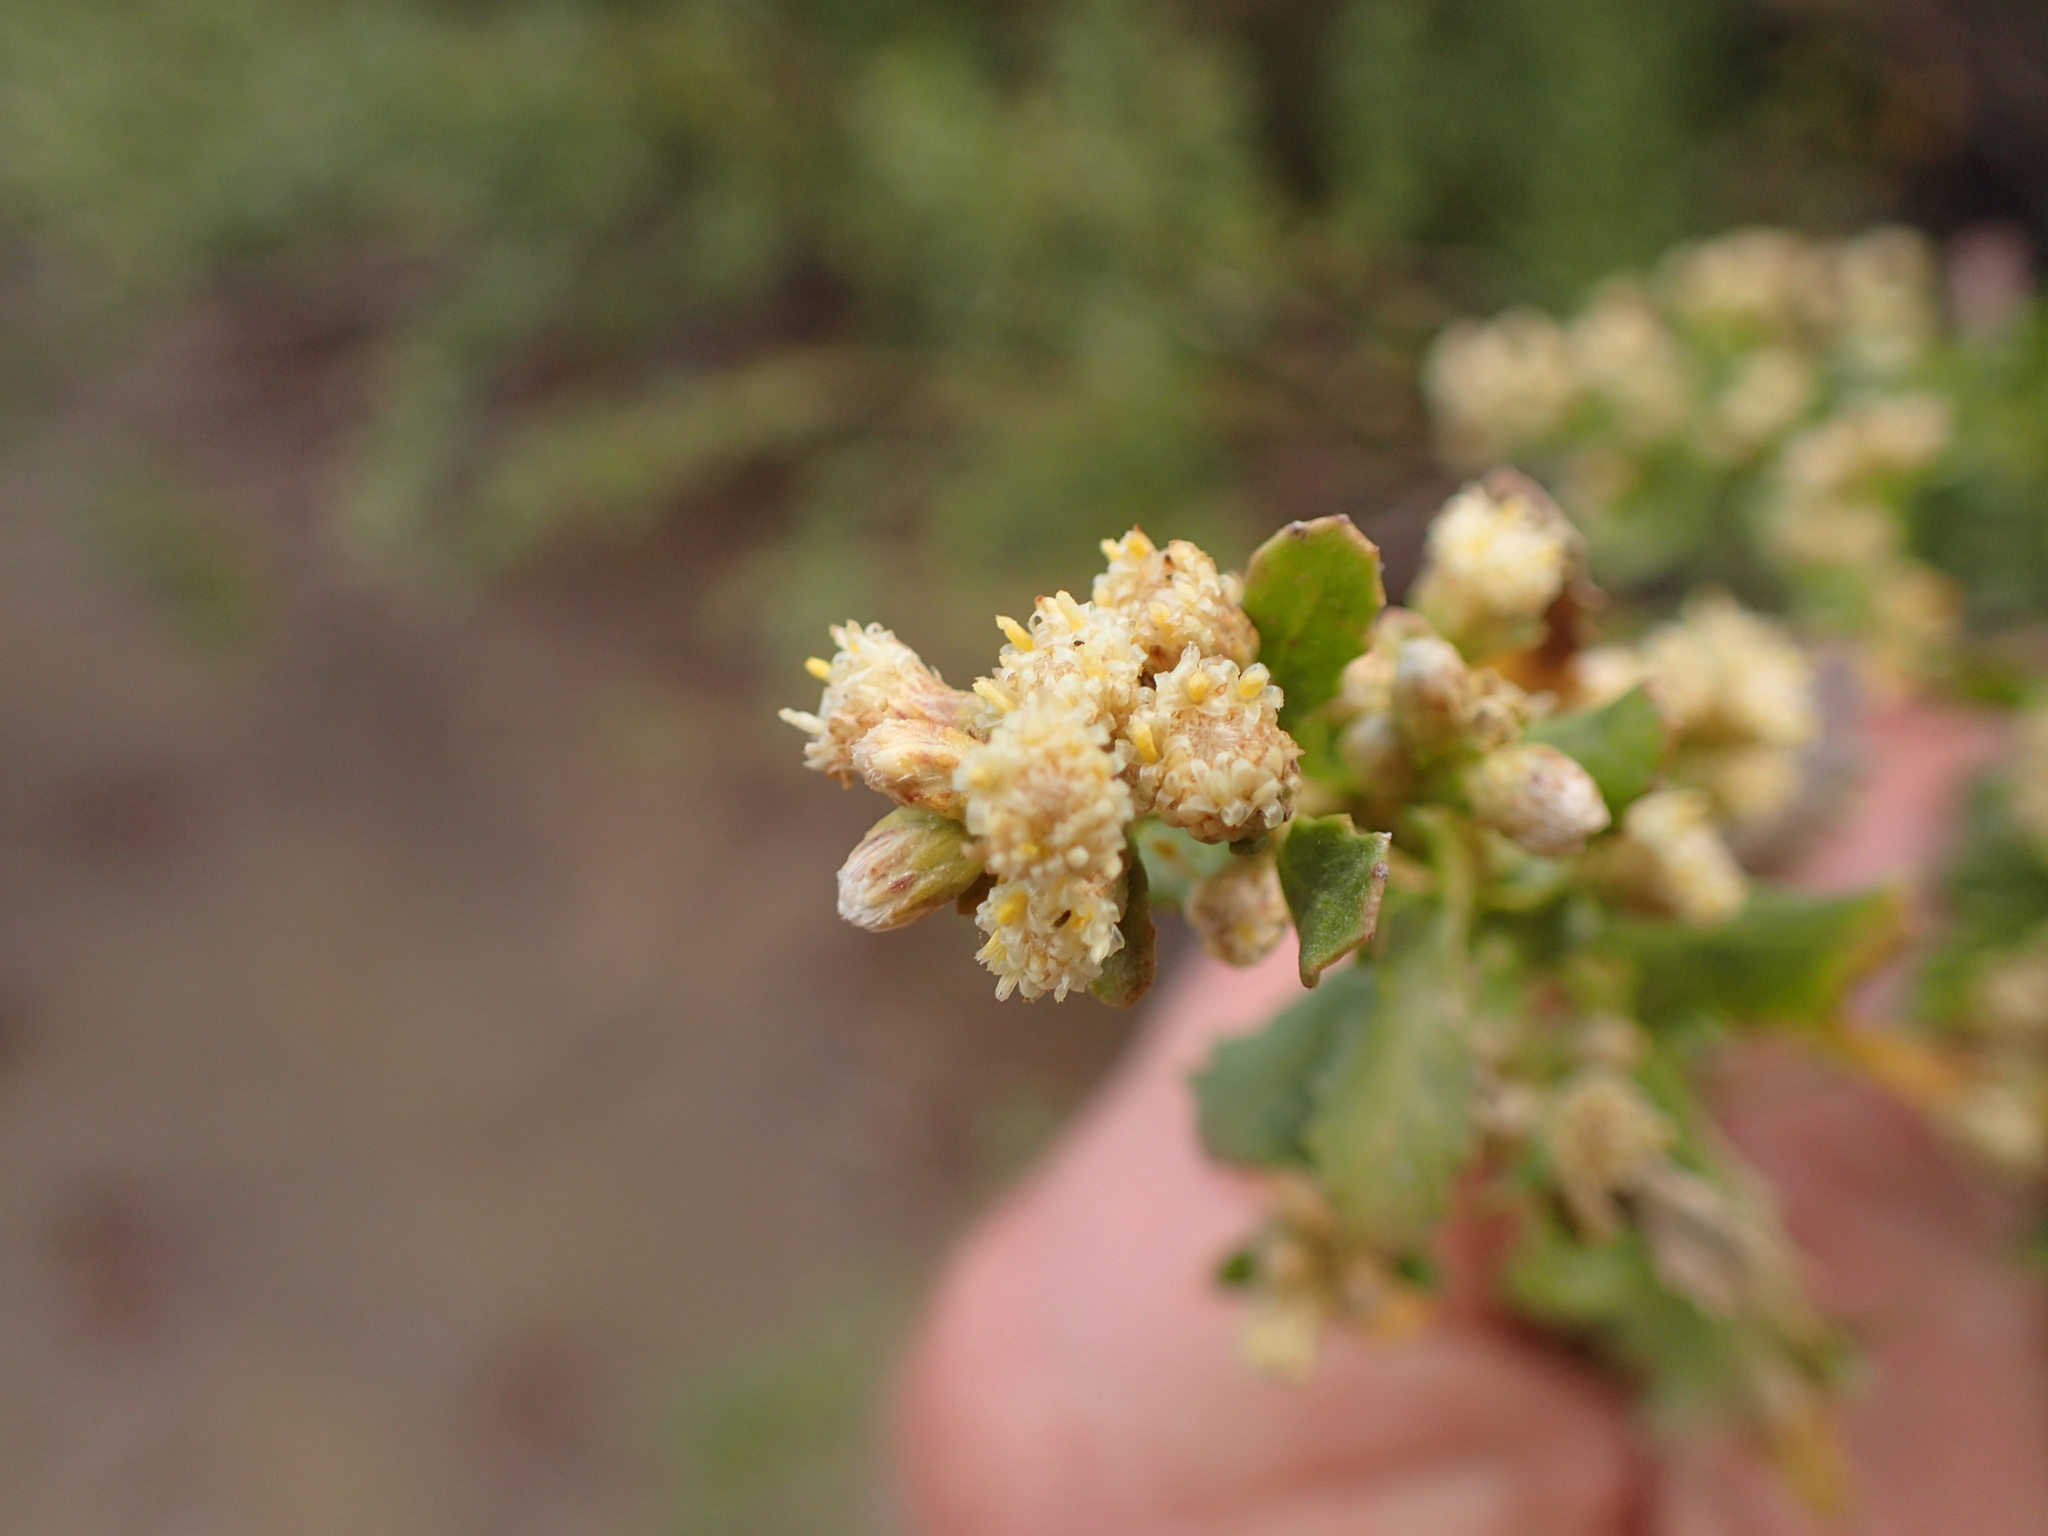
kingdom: Plantae
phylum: Tracheophyta
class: Magnoliopsida
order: Asterales
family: Asteraceae
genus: Baccharis
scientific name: Baccharis pilularis
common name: Coyotebrush
